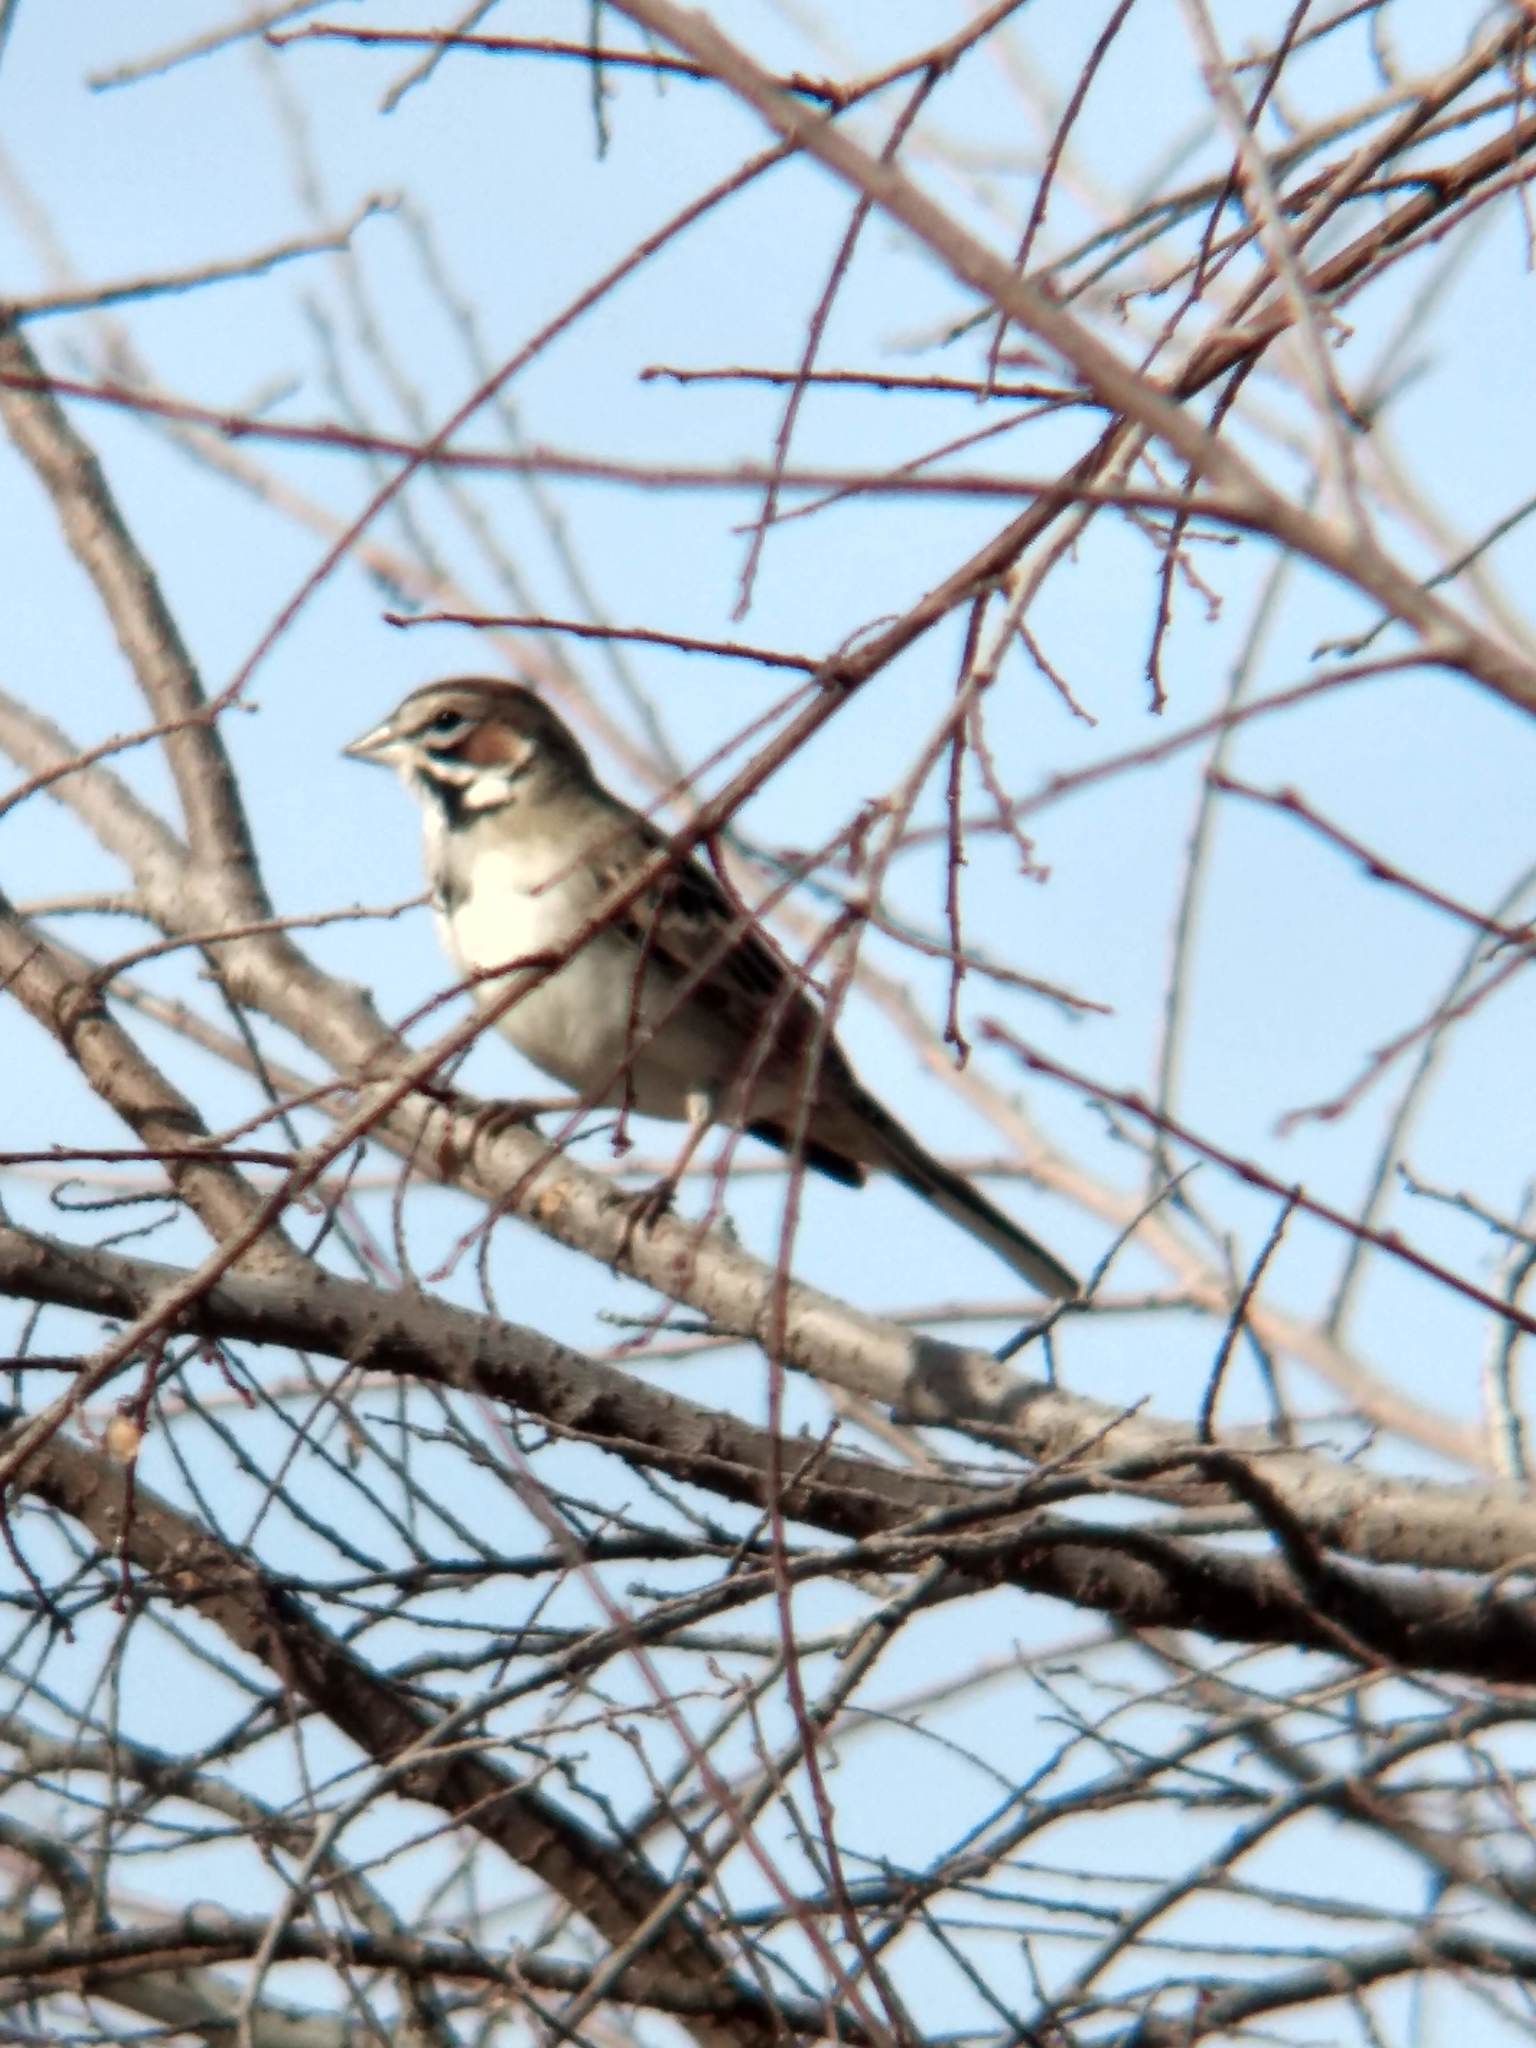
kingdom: Animalia
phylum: Chordata
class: Aves
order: Passeriformes
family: Passerellidae
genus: Chondestes
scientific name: Chondestes grammacus
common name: Lark sparrow
